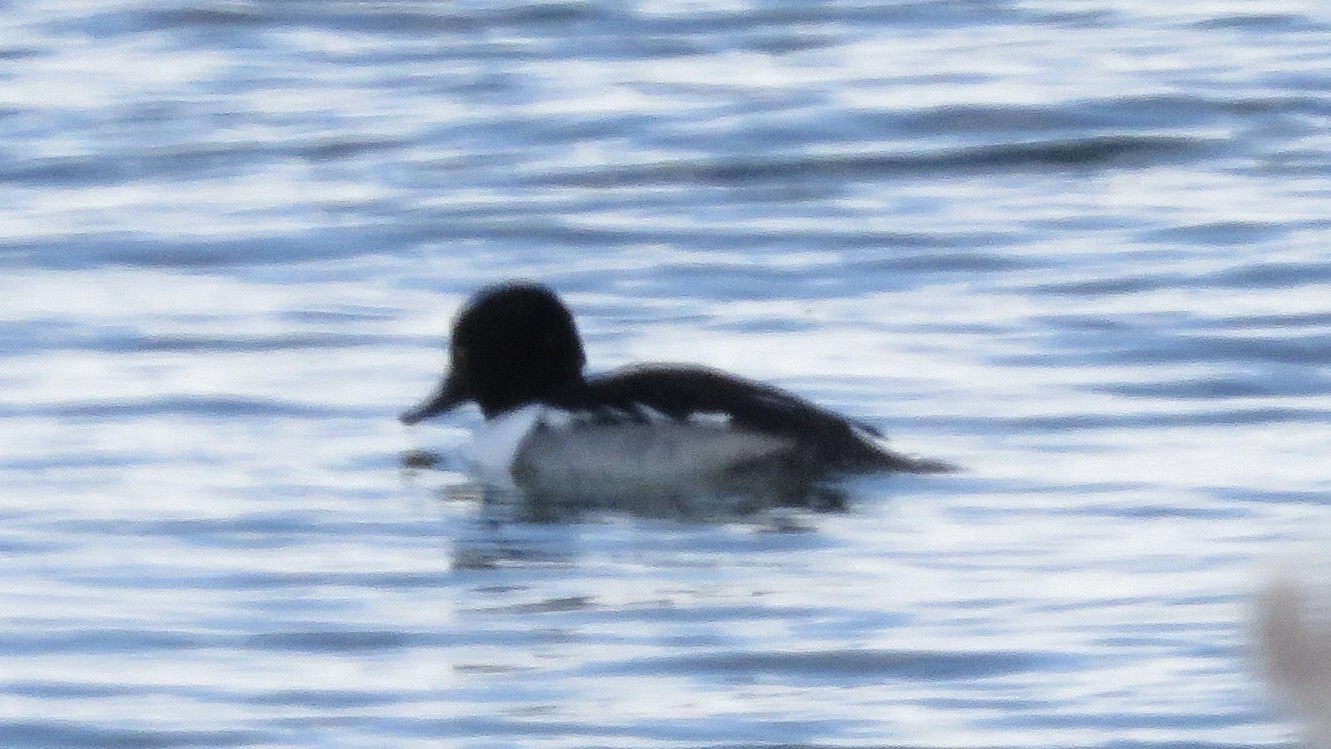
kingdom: Animalia
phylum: Chordata
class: Aves
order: Anseriformes
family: Anatidae
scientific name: Anatidae
